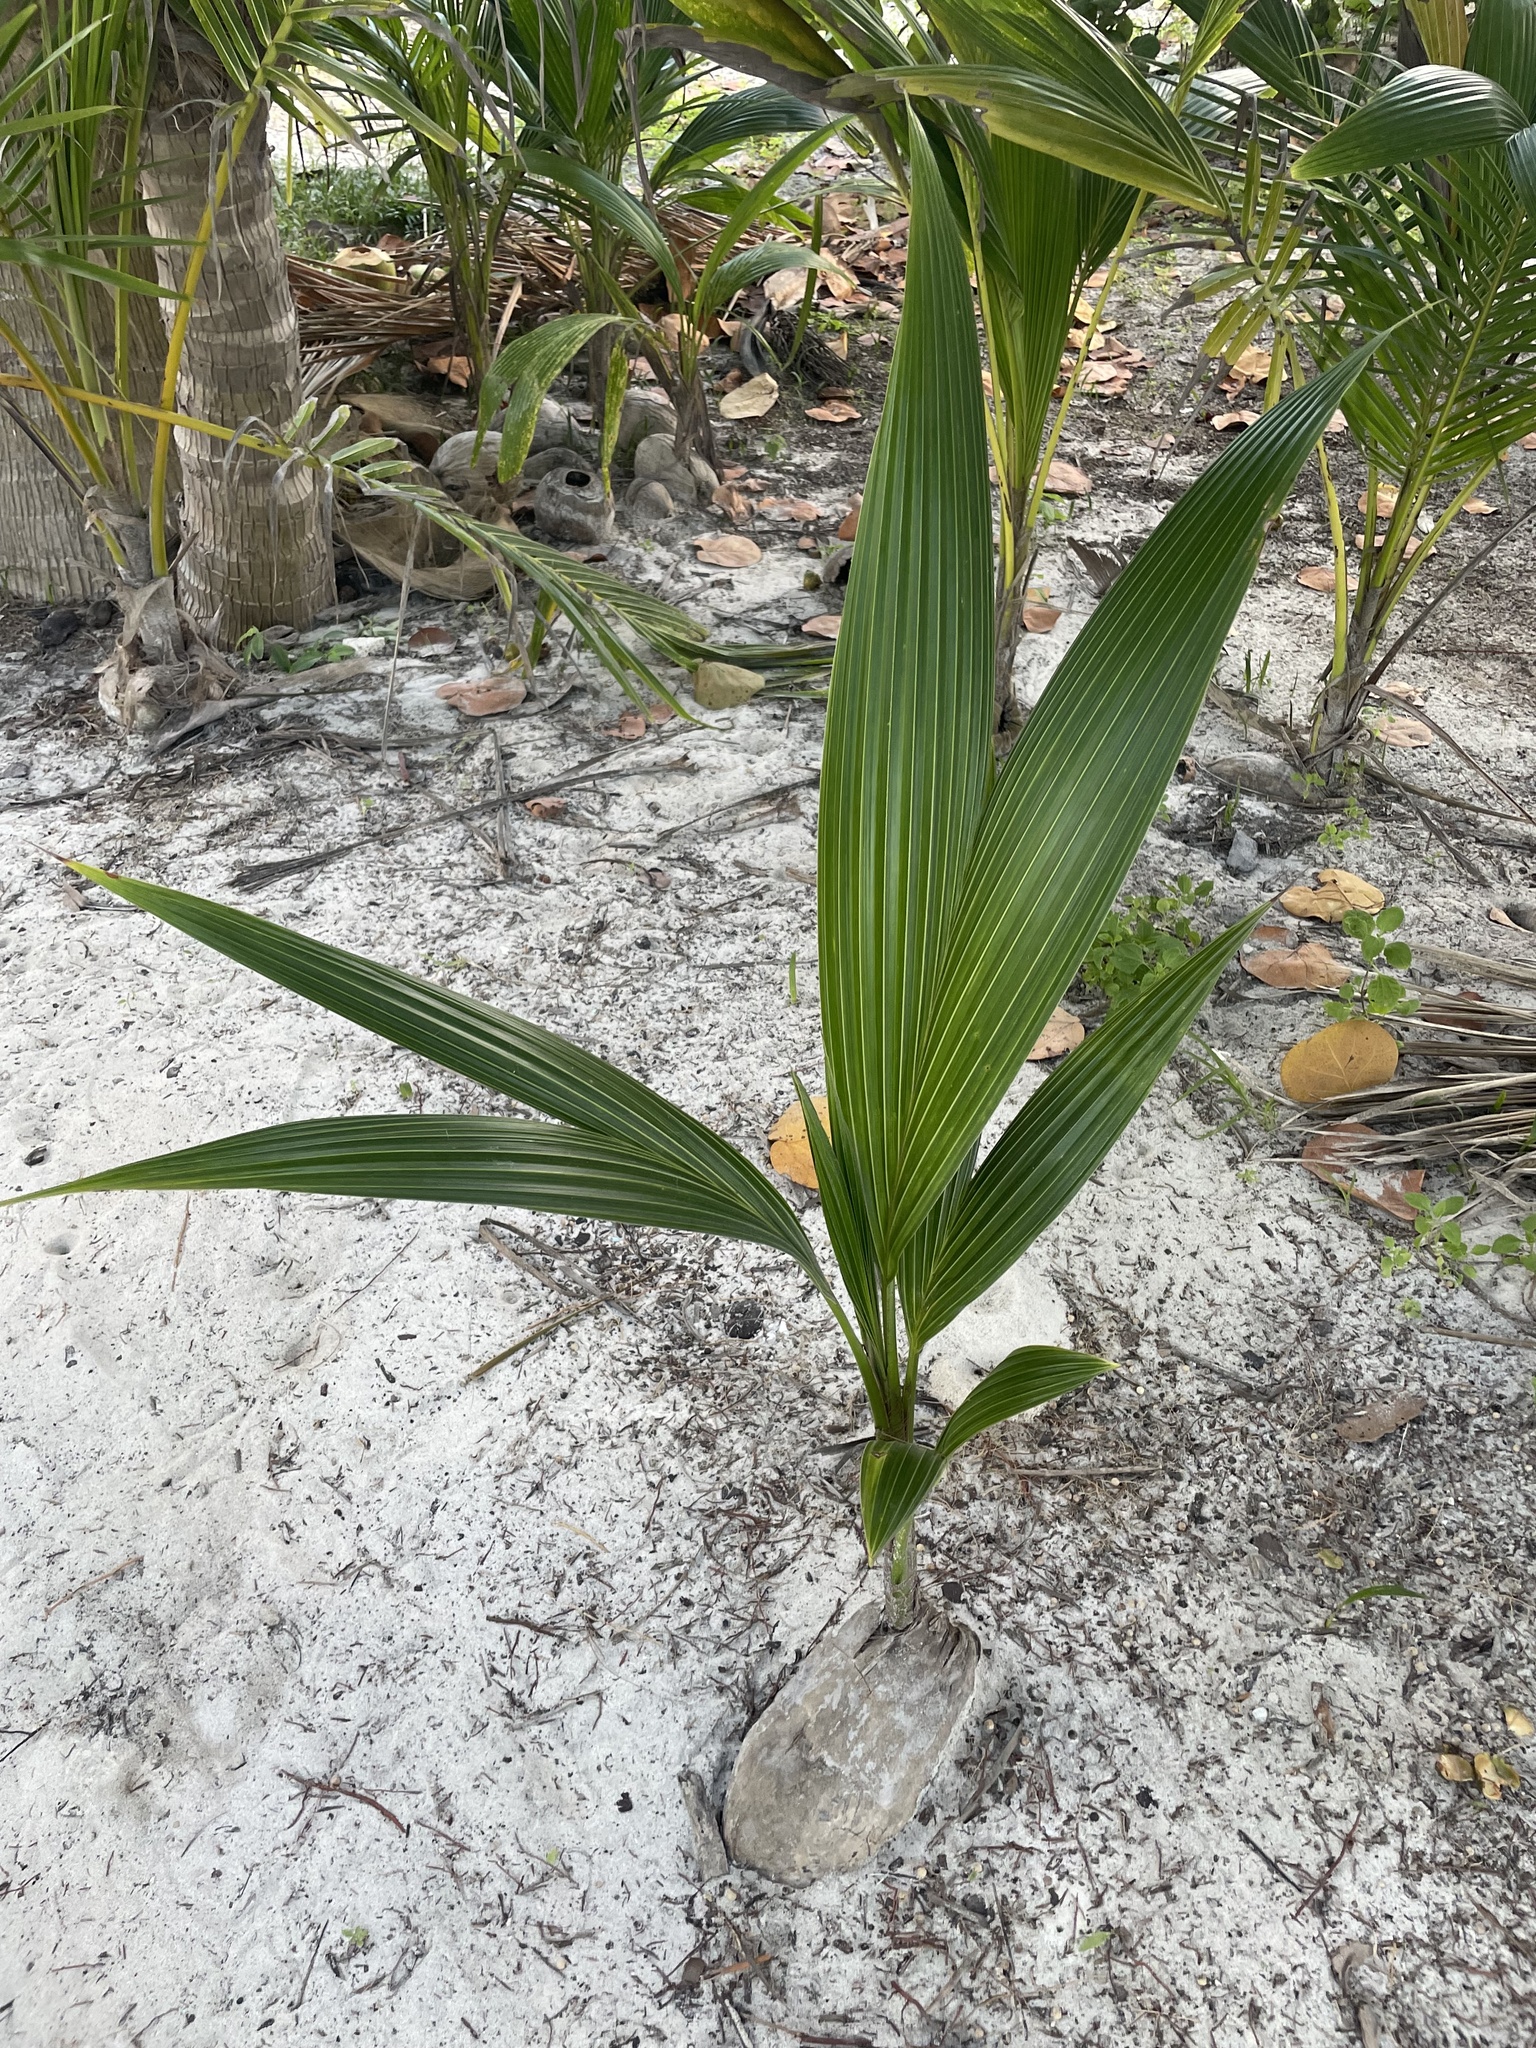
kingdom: Plantae
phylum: Tracheophyta
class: Liliopsida
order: Arecales
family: Arecaceae
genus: Cocos
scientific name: Cocos nucifera
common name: Coconut palm
